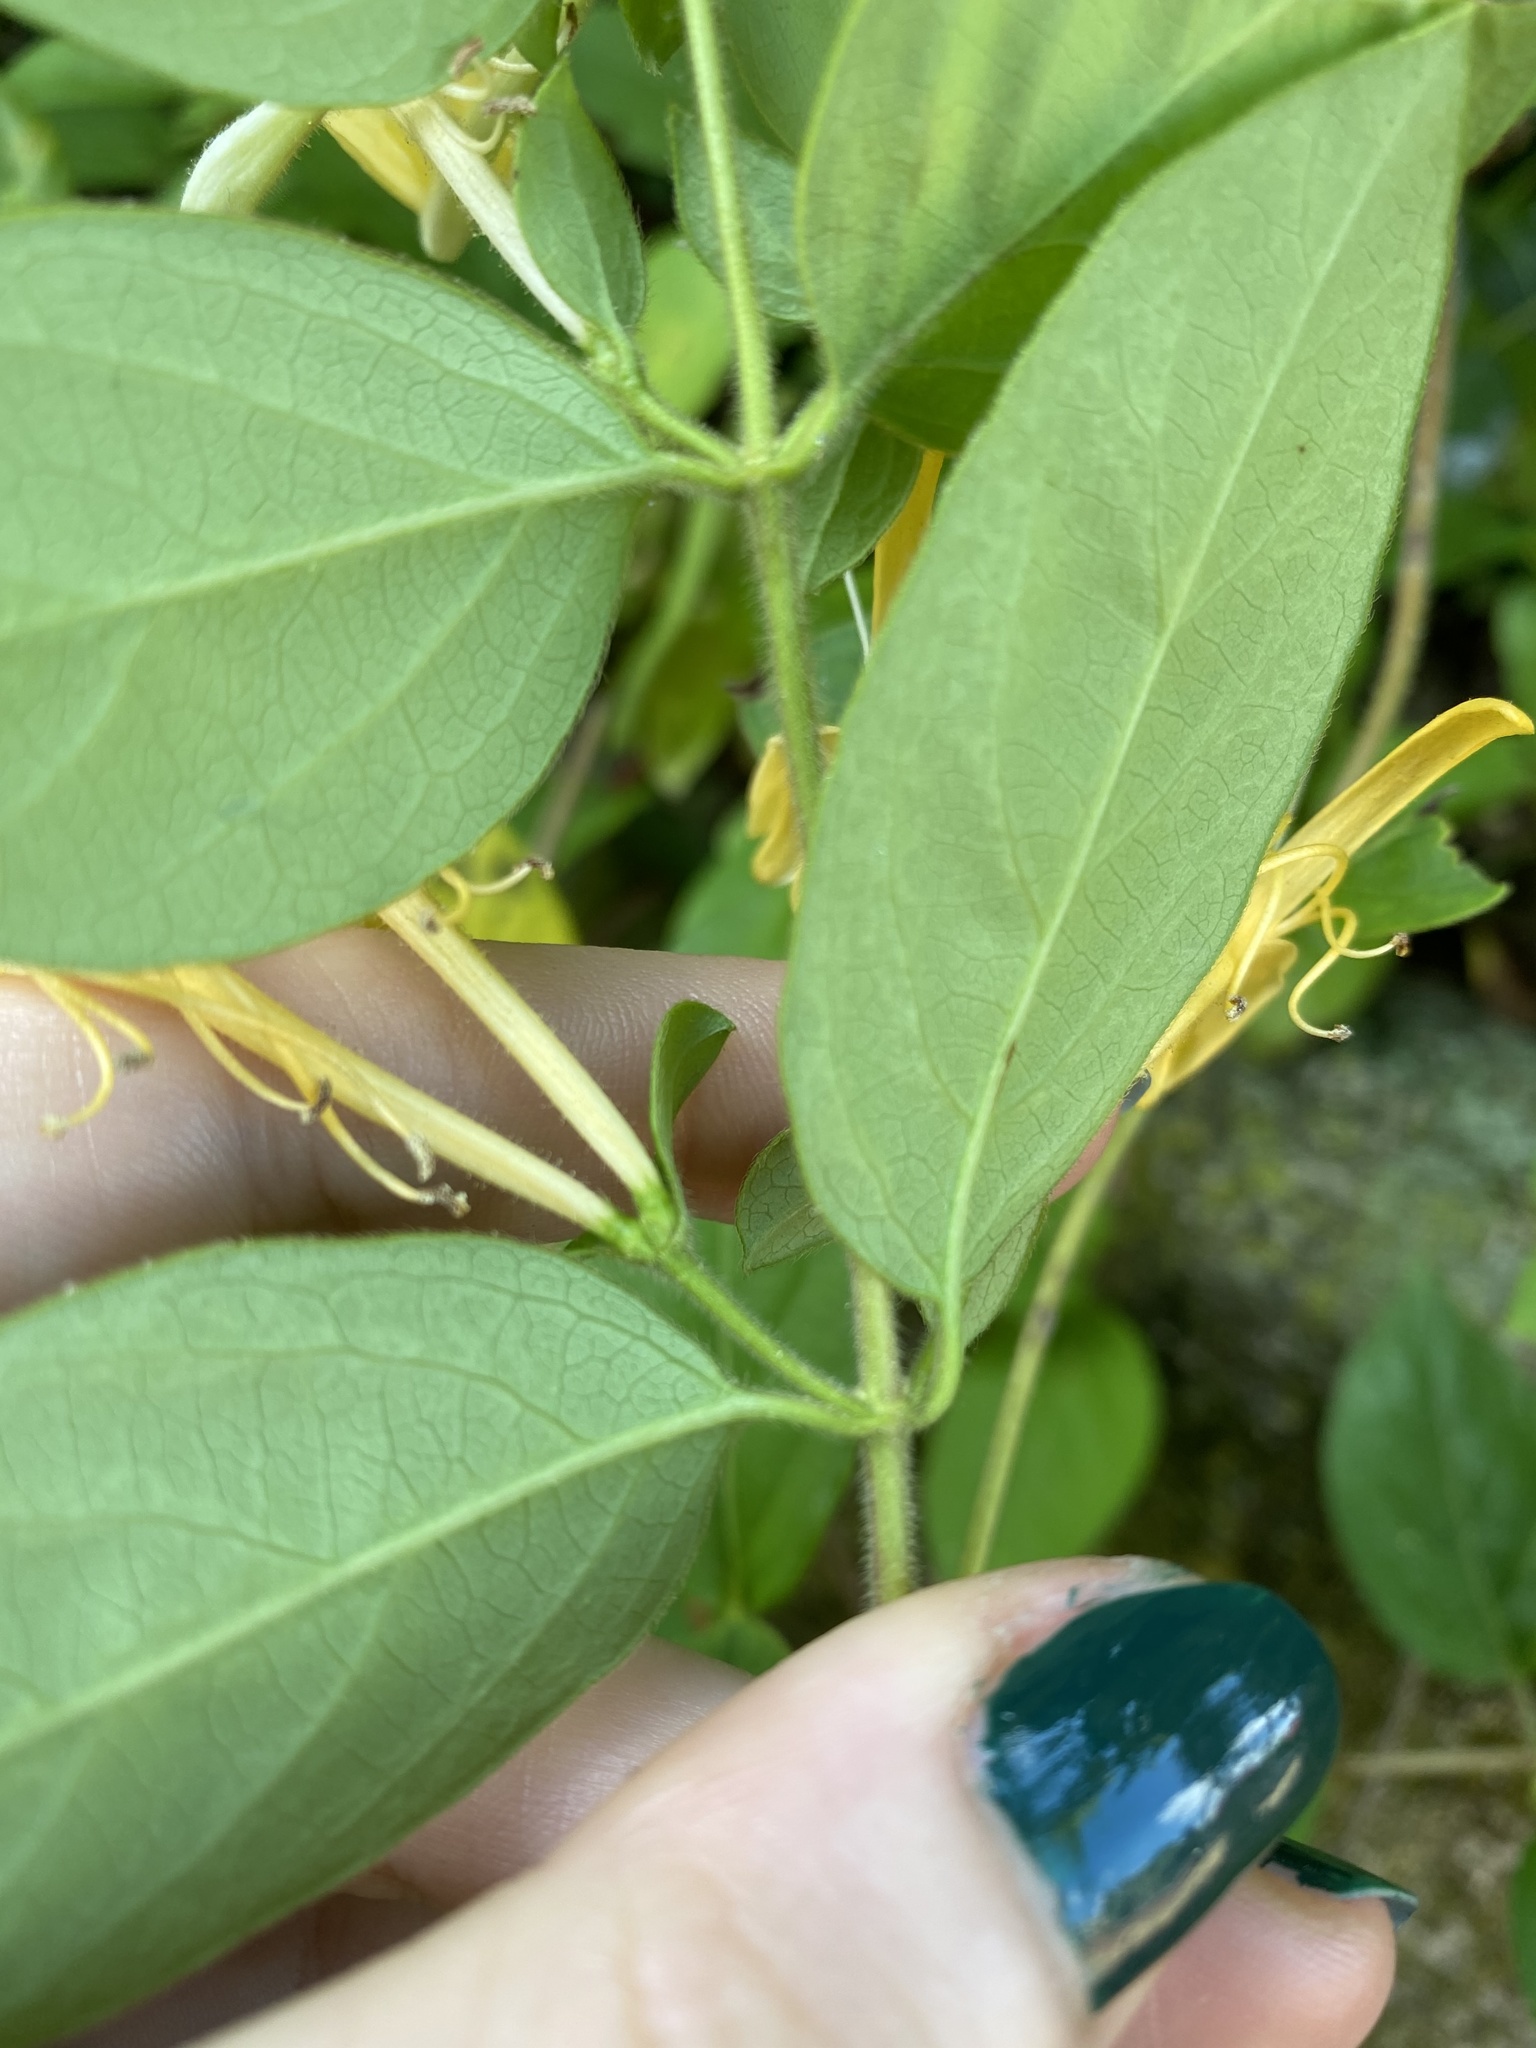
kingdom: Plantae
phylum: Tracheophyta
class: Magnoliopsida
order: Dipsacales
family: Caprifoliaceae
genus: Lonicera
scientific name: Lonicera japonica
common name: Japanese honeysuckle
